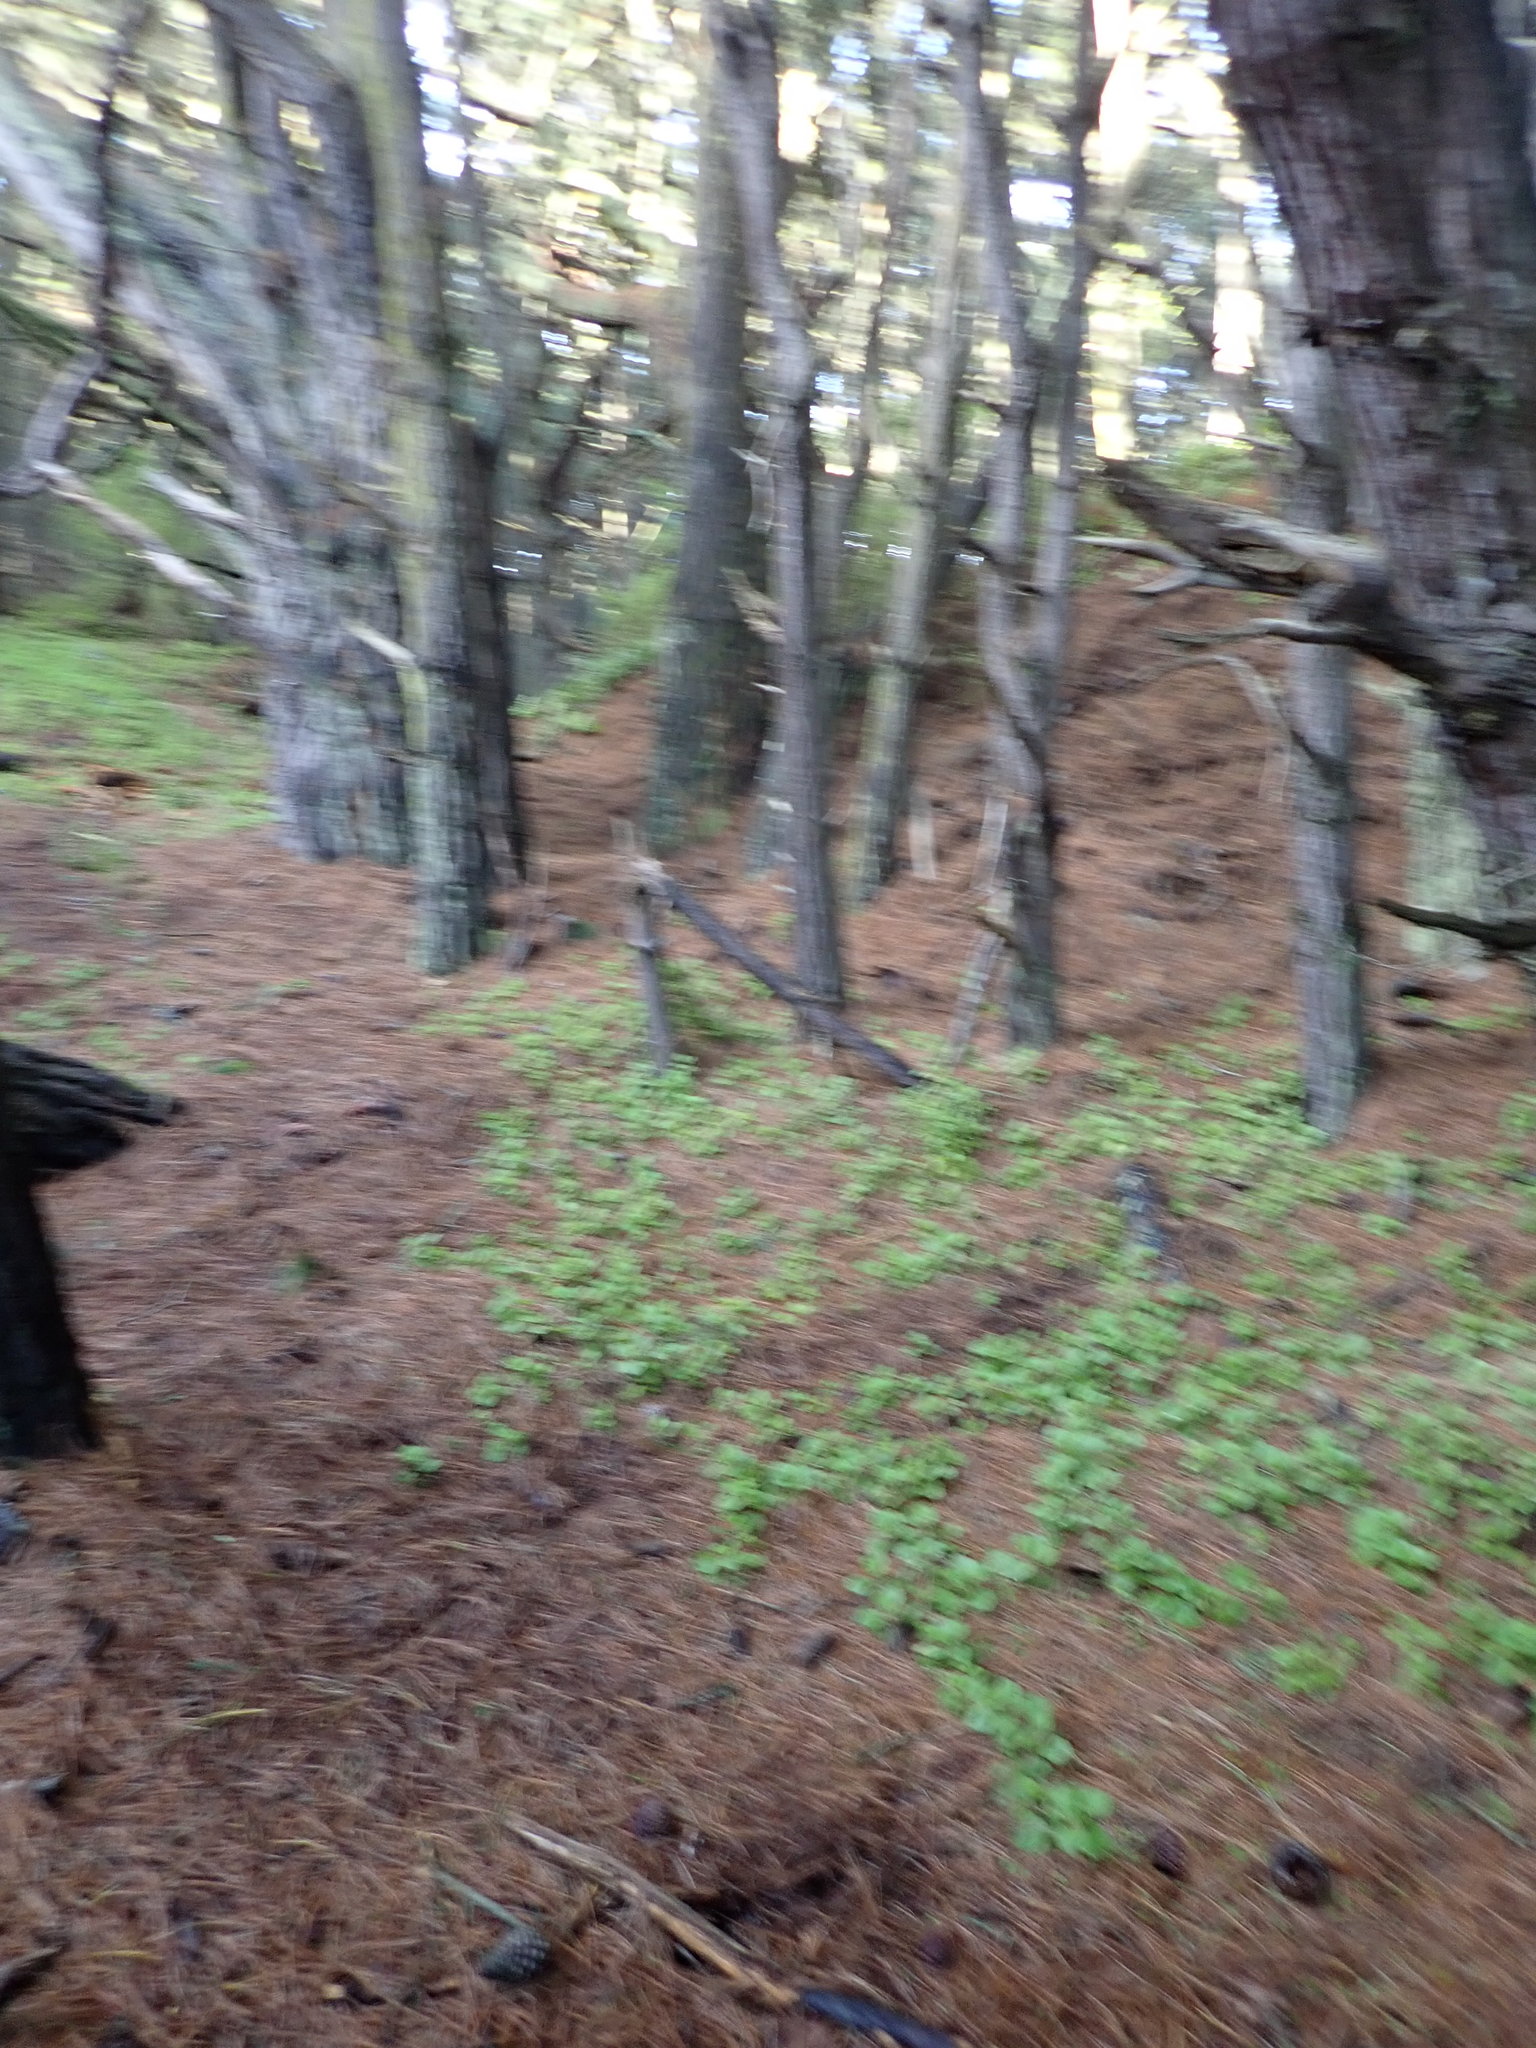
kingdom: Plantae
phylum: Tracheophyta
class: Magnoliopsida
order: Caryophyllales
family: Aizoaceae
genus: Tetragonia
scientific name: Tetragonia implexicoma
